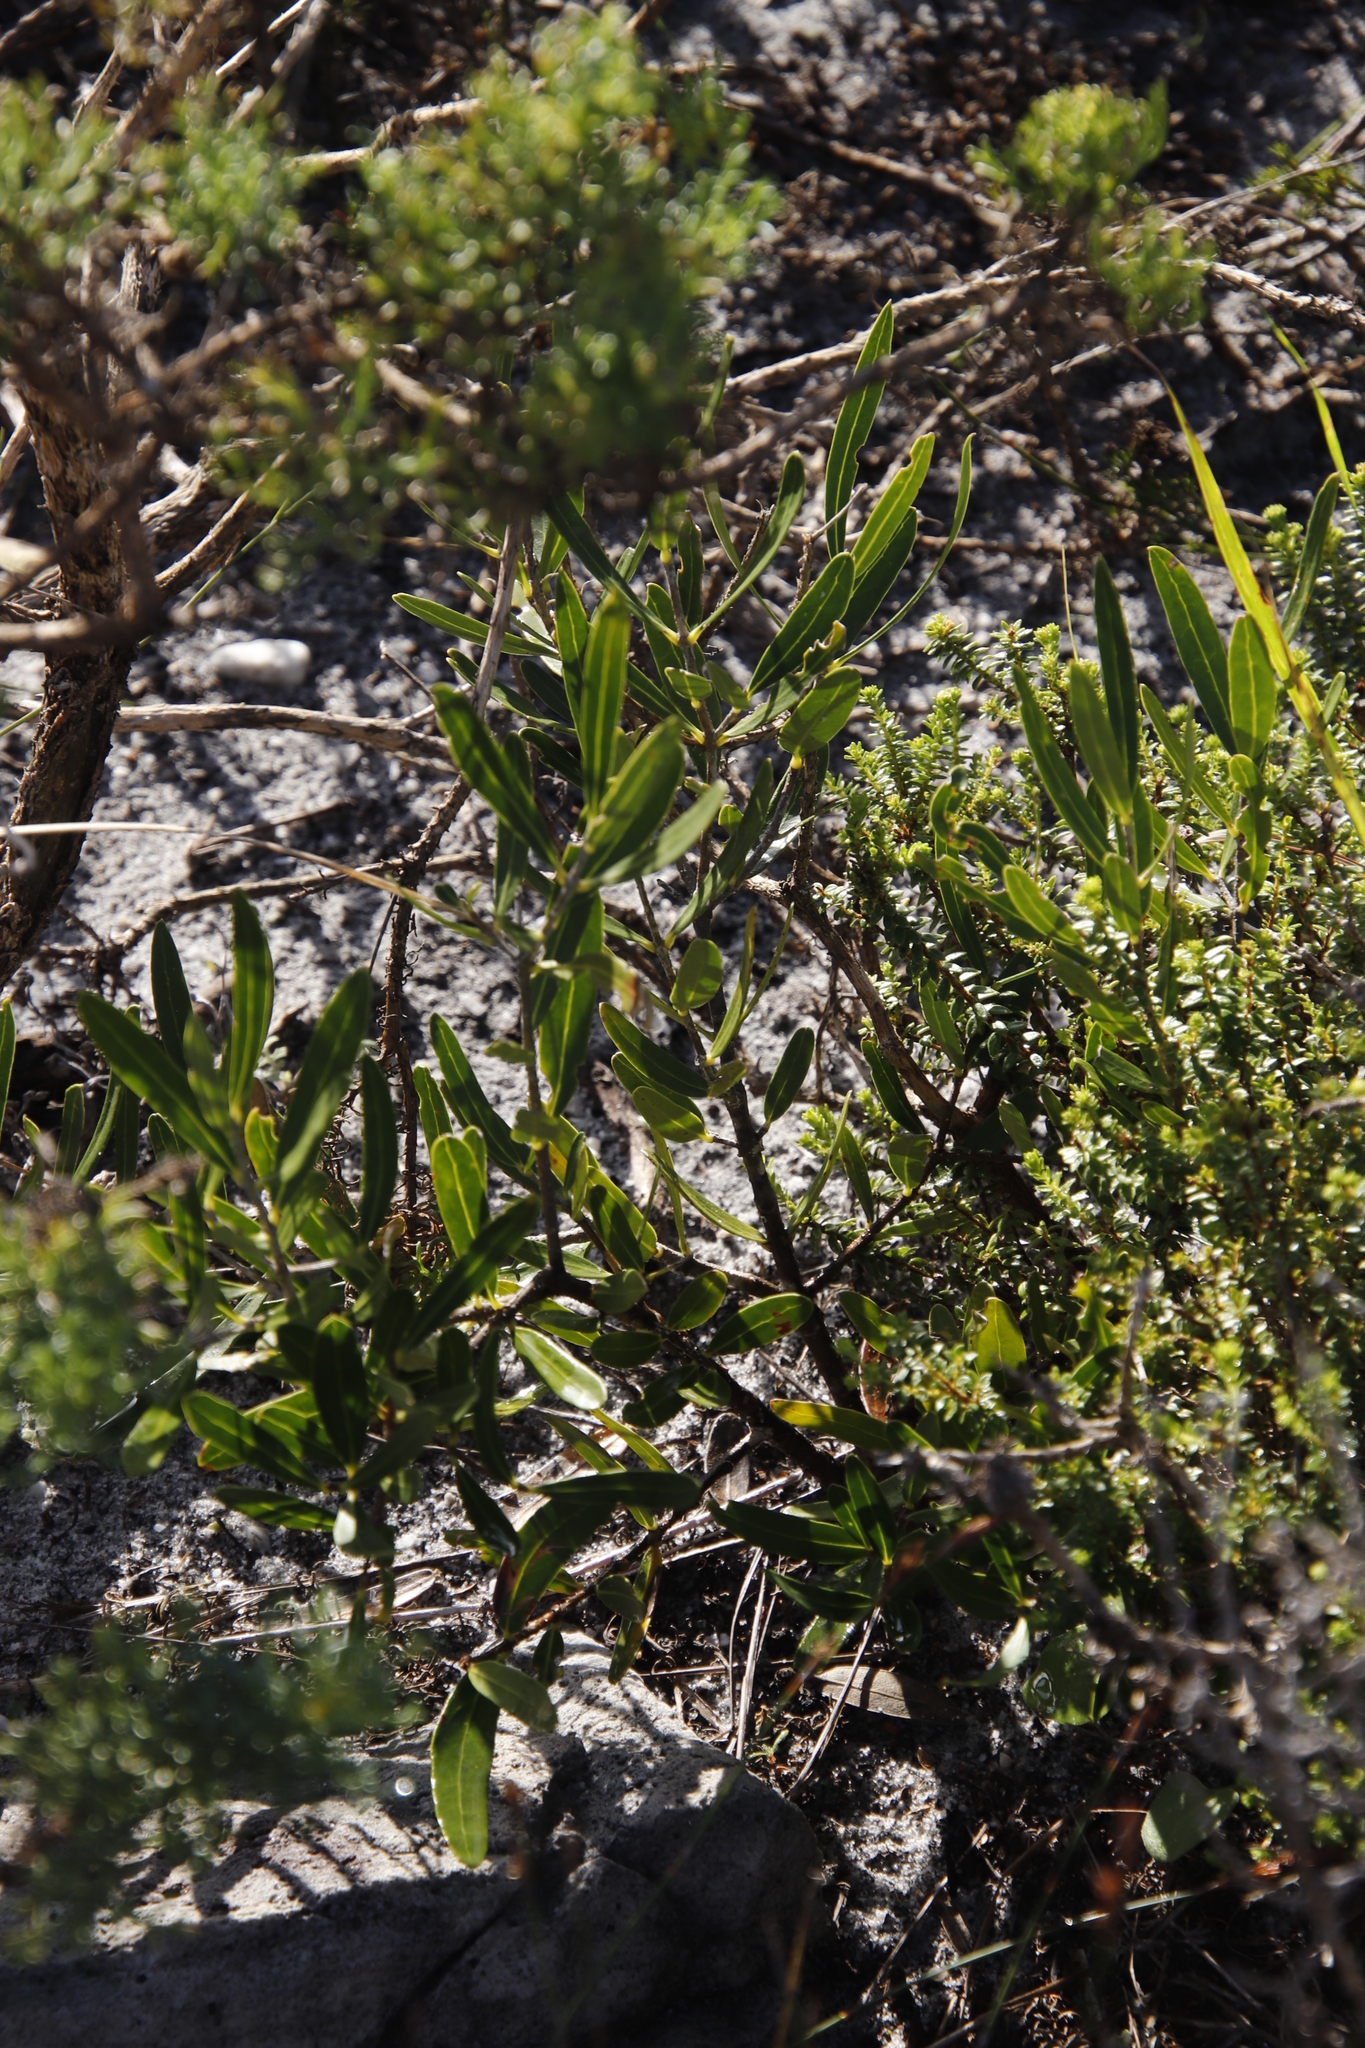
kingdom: Plantae
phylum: Tracheophyta
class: Magnoliopsida
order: Lamiales
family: Oleaceae
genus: Olea
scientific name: Olea exasperata
